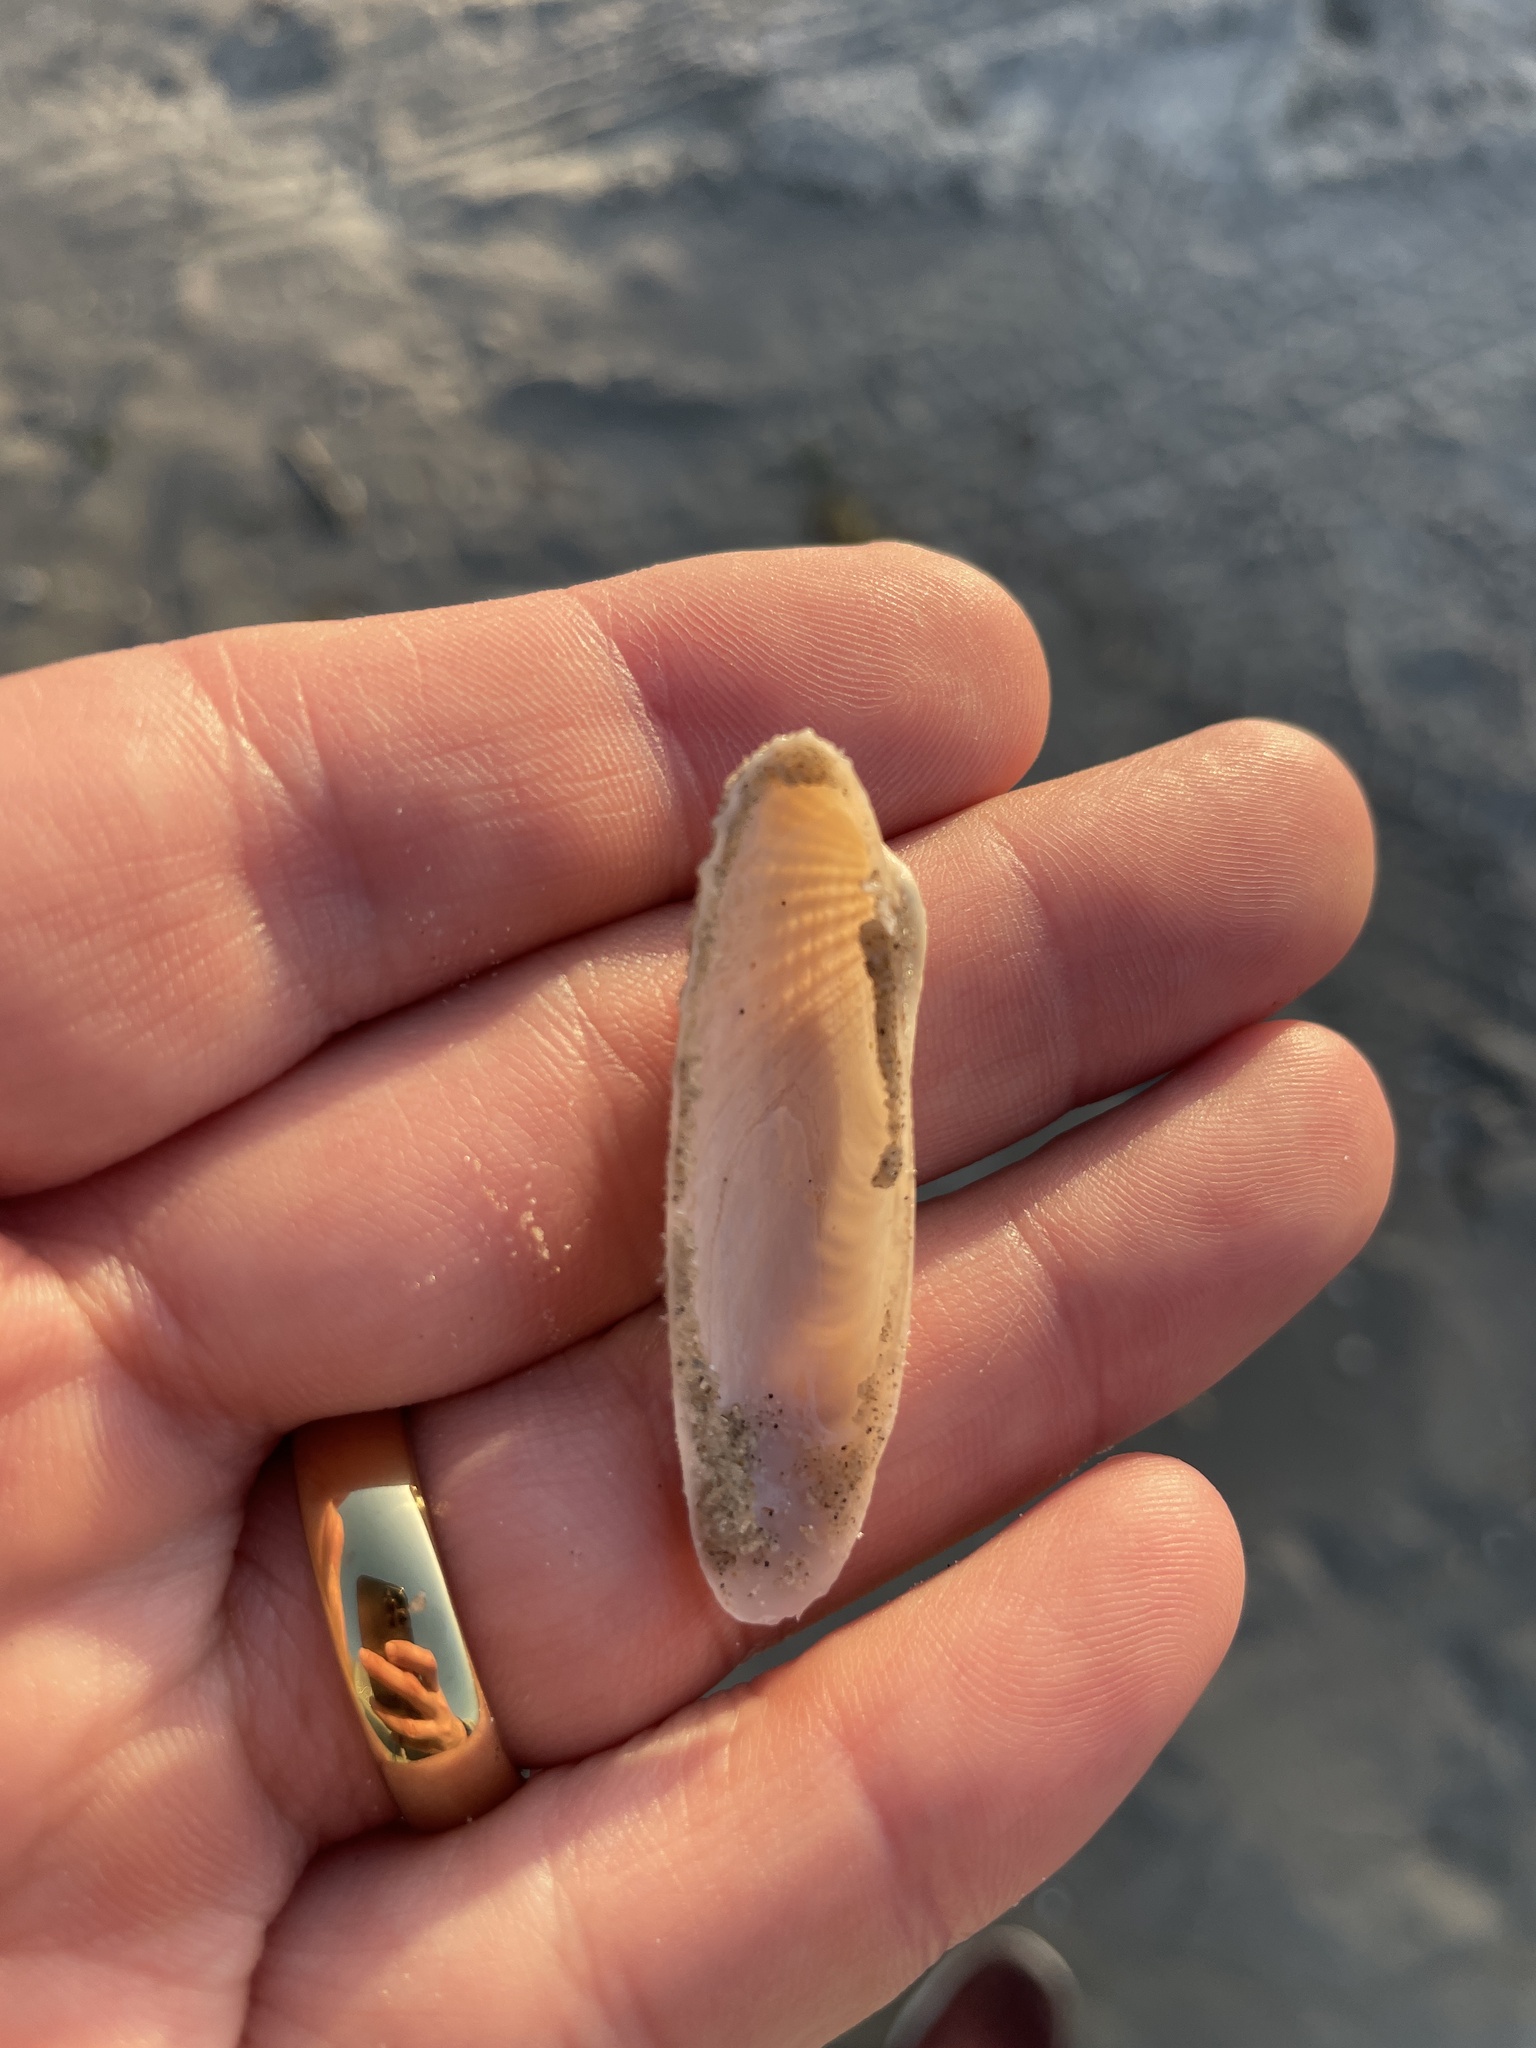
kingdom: Animalia
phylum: Mollusca
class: Bivalvia
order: Venerida
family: Veneridae
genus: Petricolaria
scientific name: Petricolaria pholadiformis
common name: American piddock
